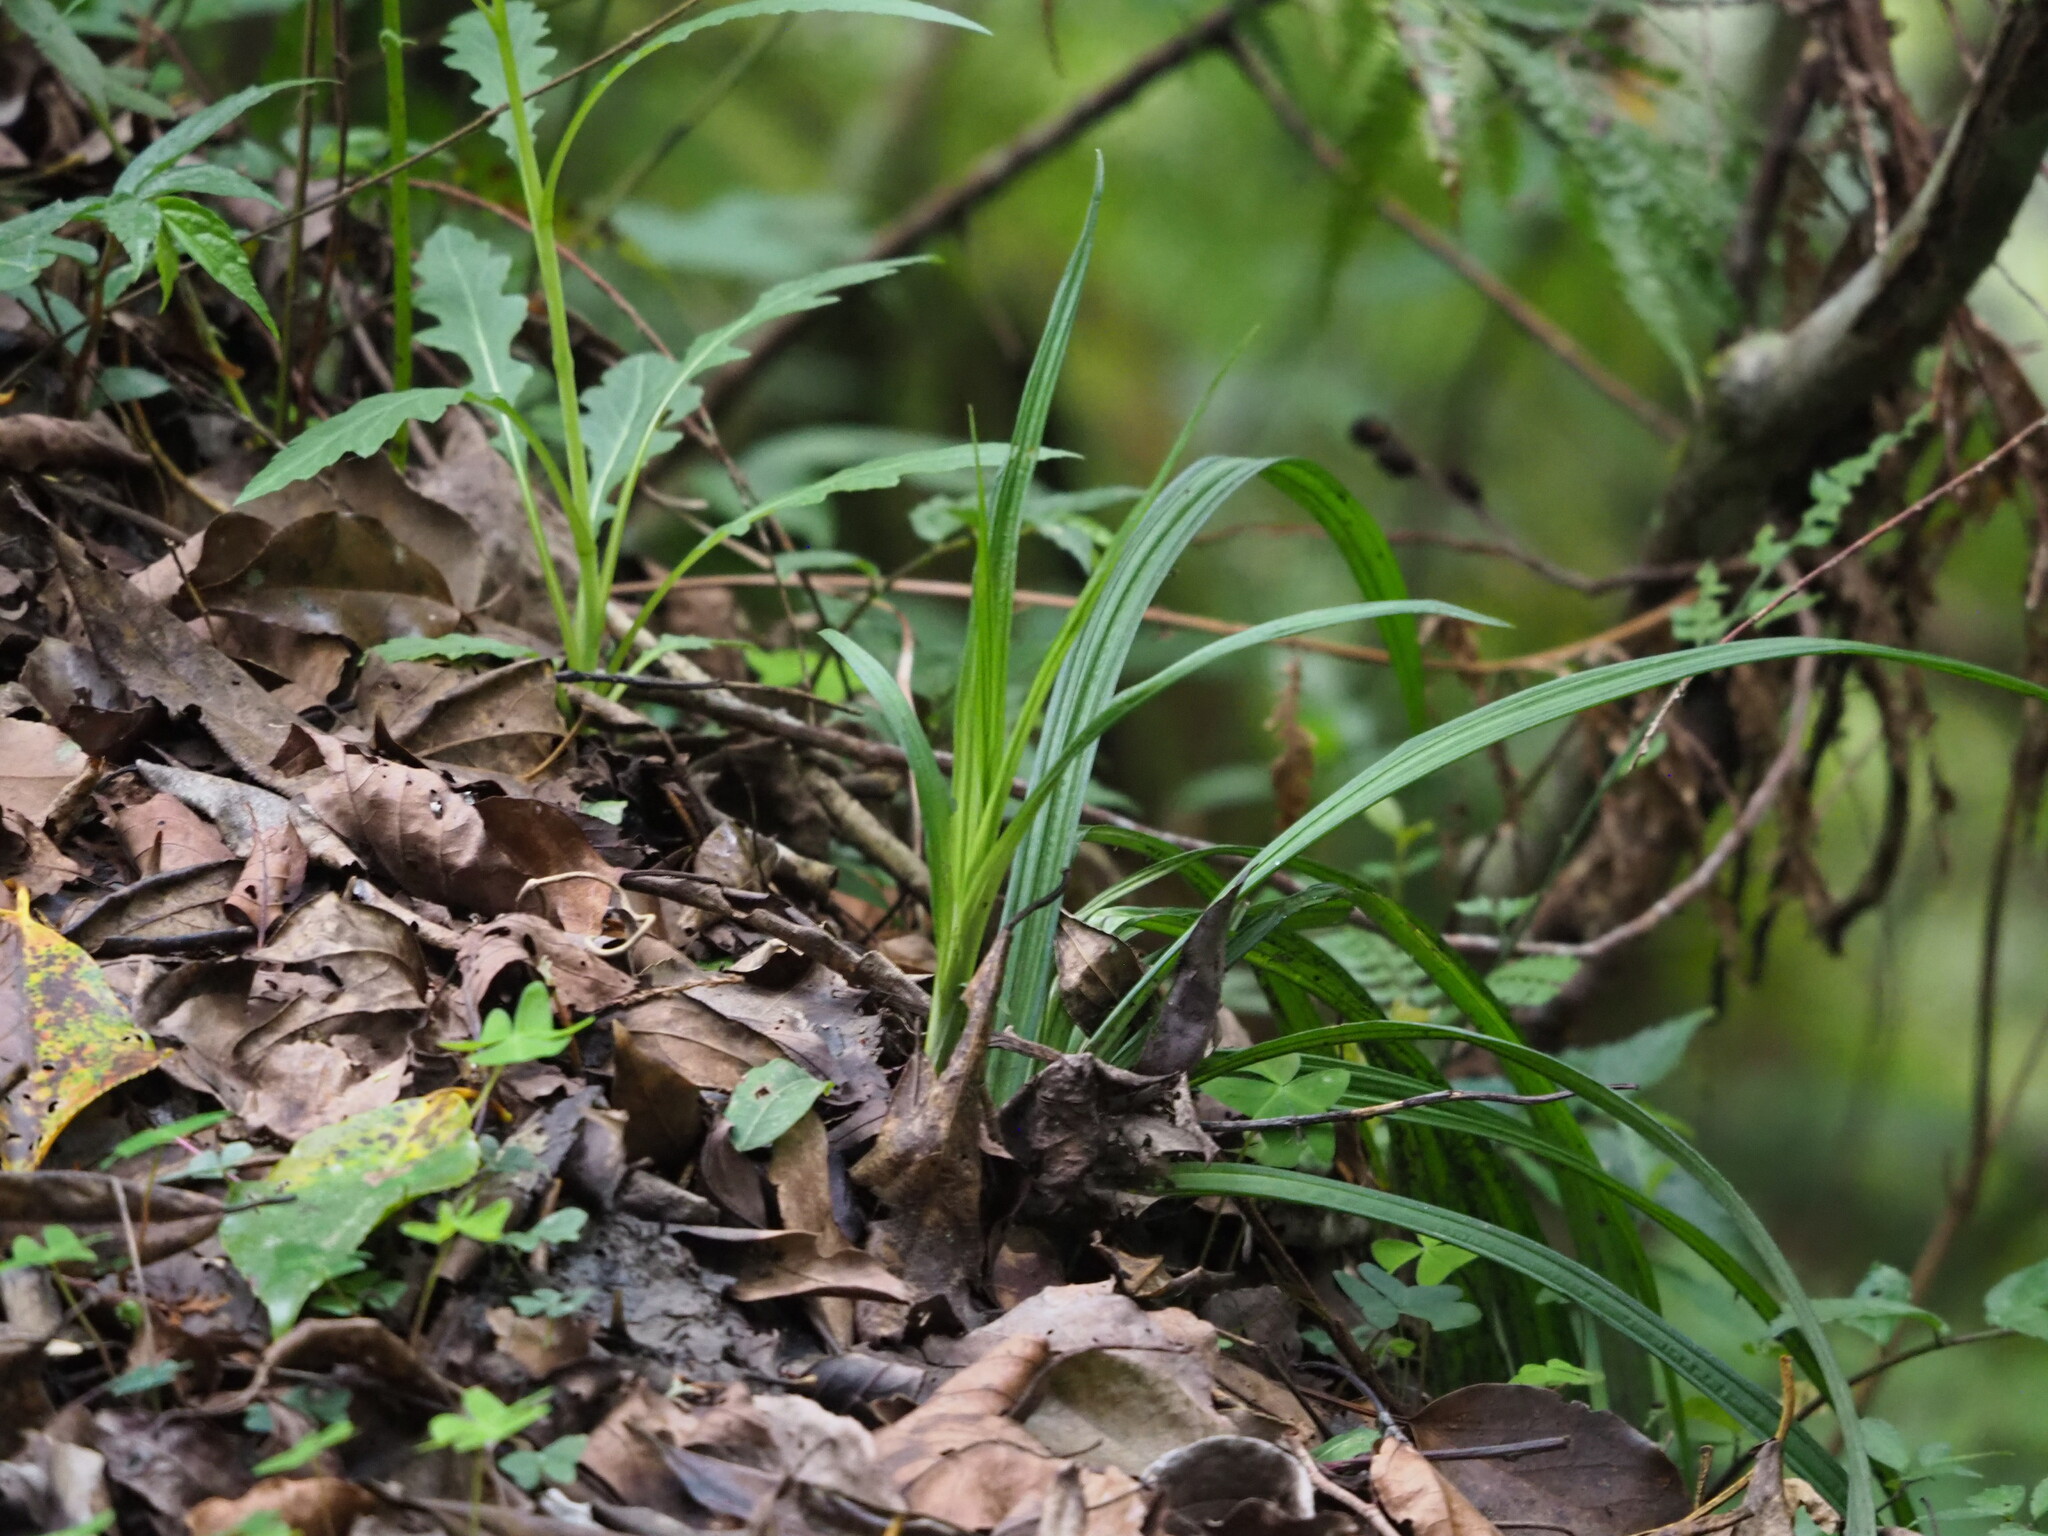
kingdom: Plantae
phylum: Tracheophyta
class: Liliopsida
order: Asparagales
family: Orchidaceae
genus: Calanthe
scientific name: Calanthe davidii
